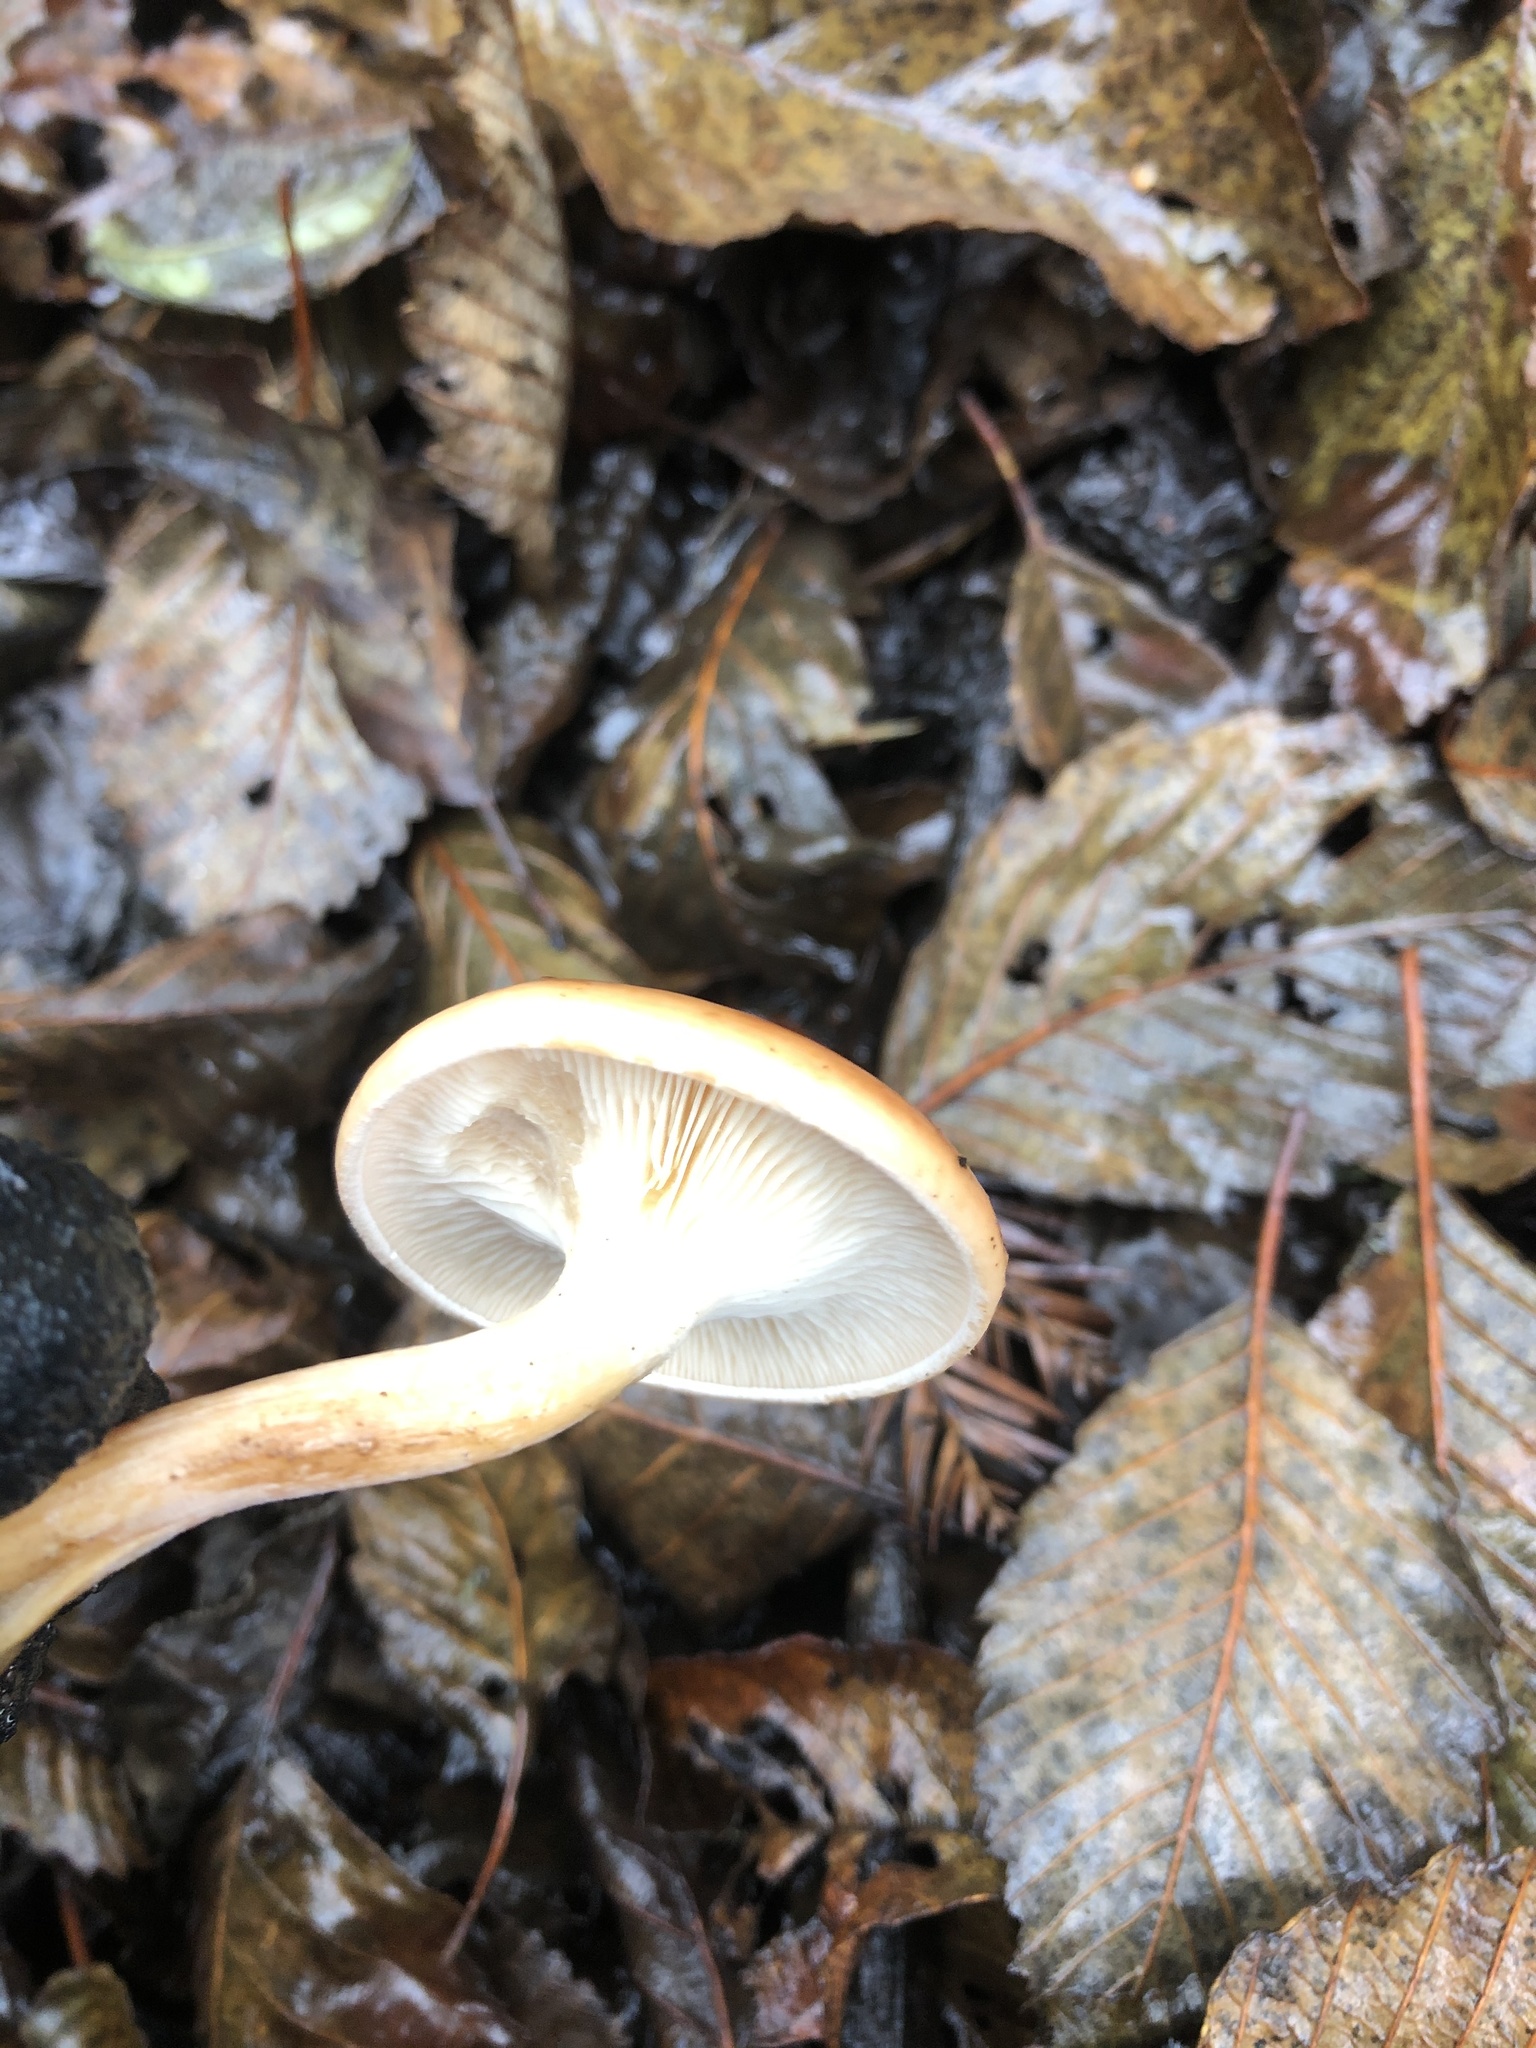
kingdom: Fungi
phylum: Basidiomycota
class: Agaricomycetes
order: Agaricales
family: Tricholomataceae
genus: Paralepista
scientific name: Paralepista flaccida
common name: Tawny funnel cap
